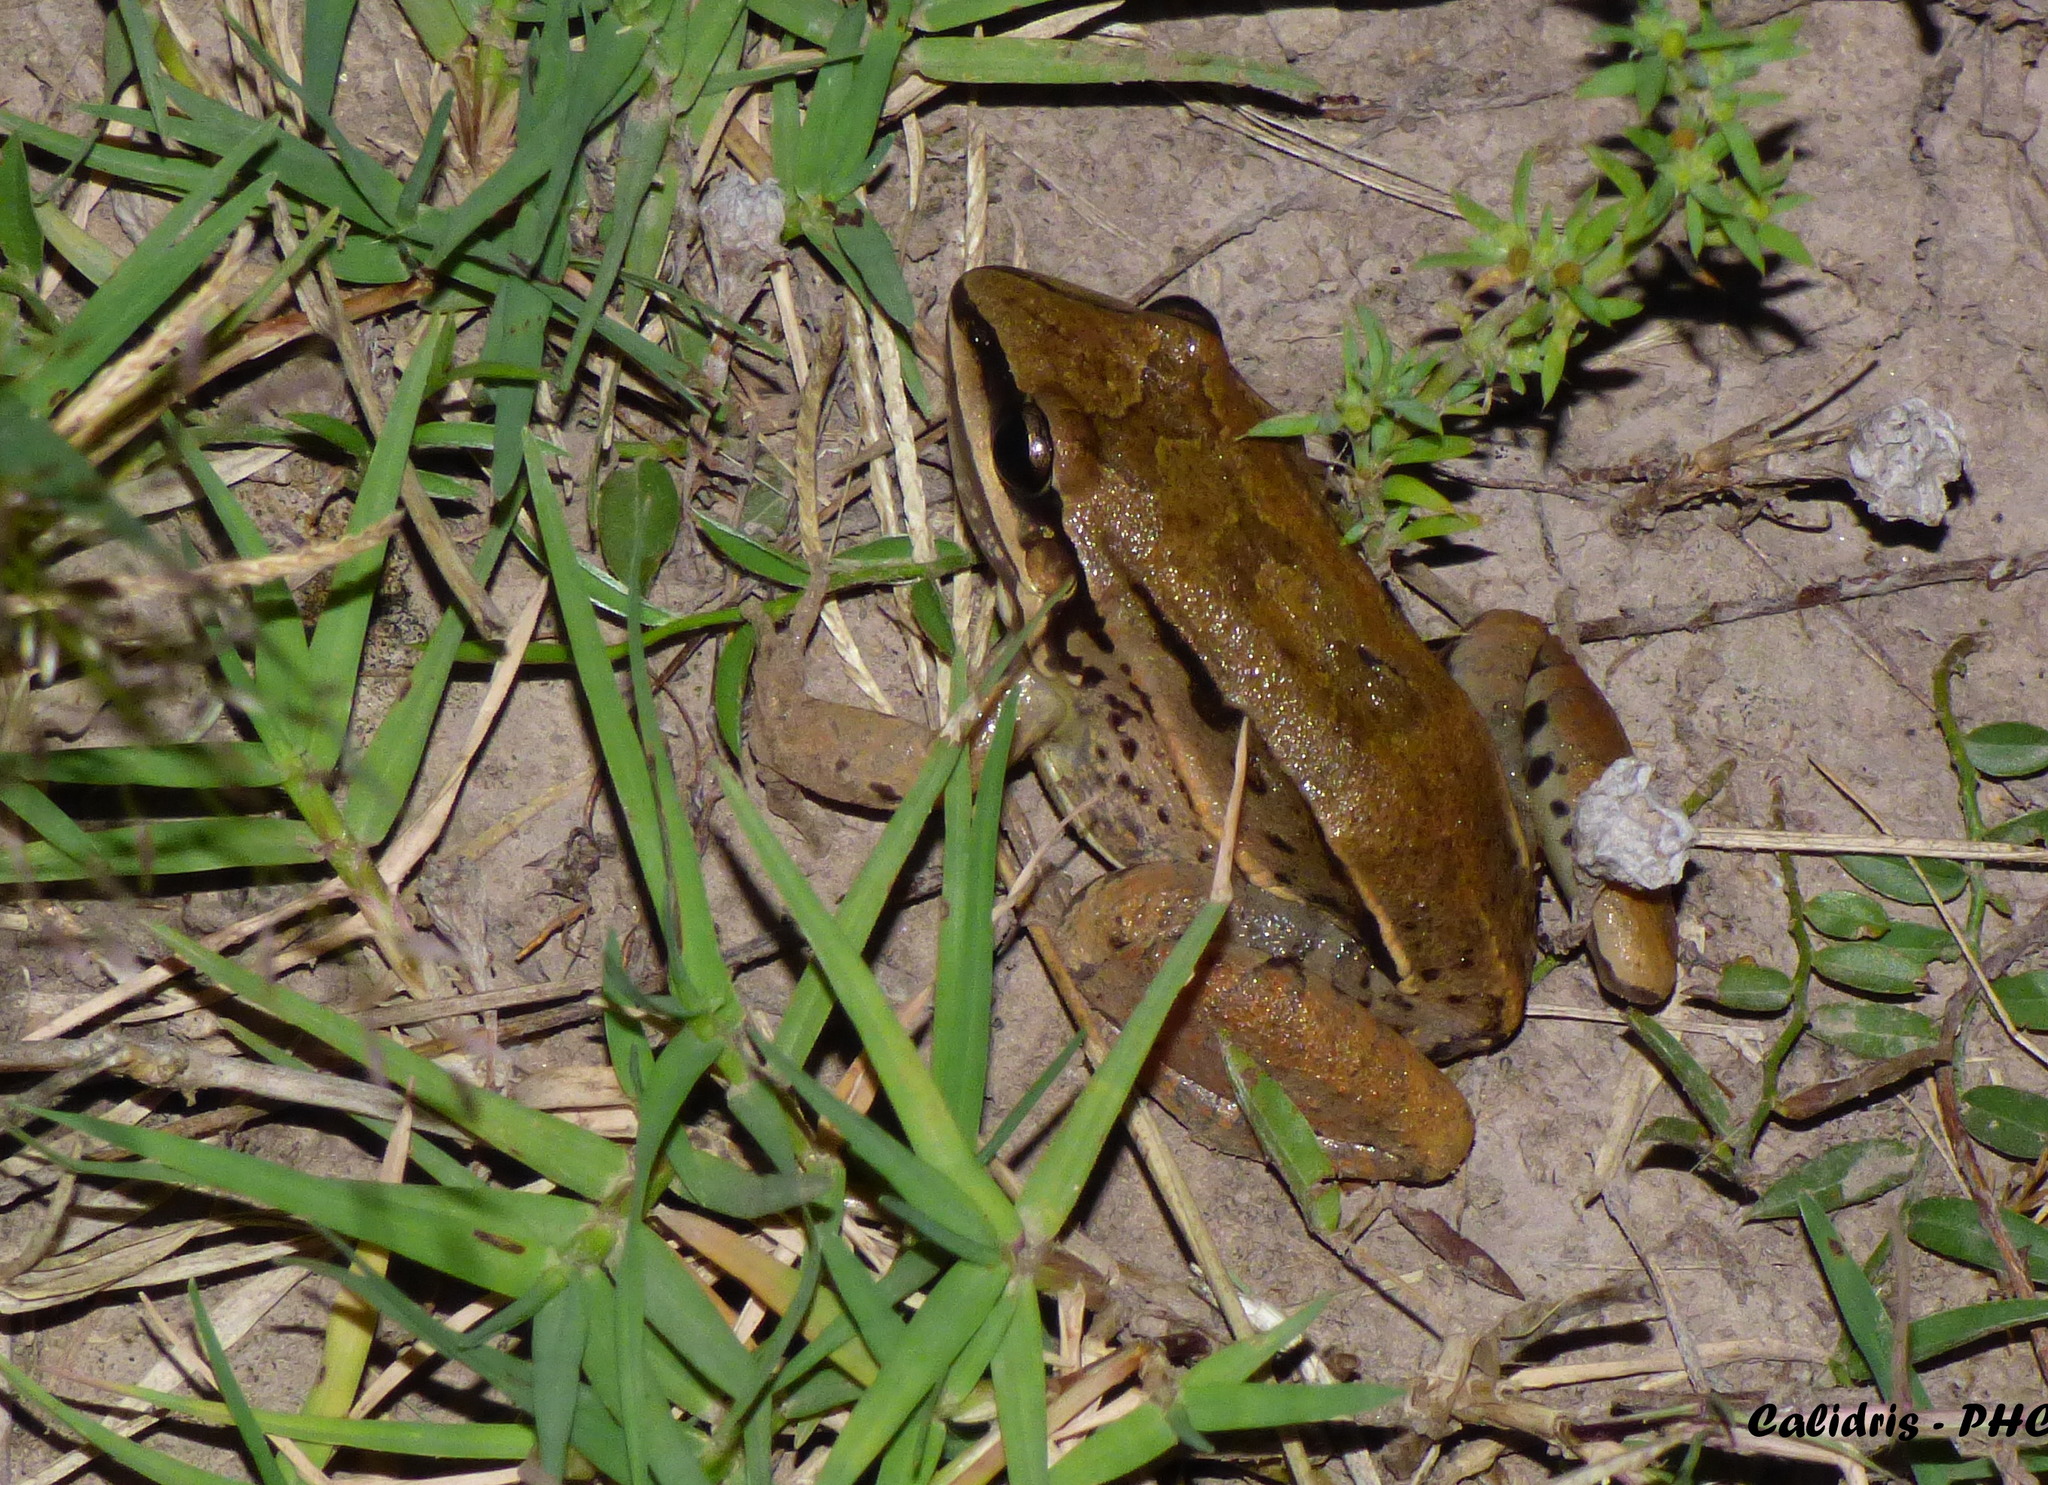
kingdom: Animalia
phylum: Chordata
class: Amphibia
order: Anura
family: Leptodactylidae
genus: Leptodactylus
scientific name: Leptodactylus mystacinus
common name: Moustached frog
